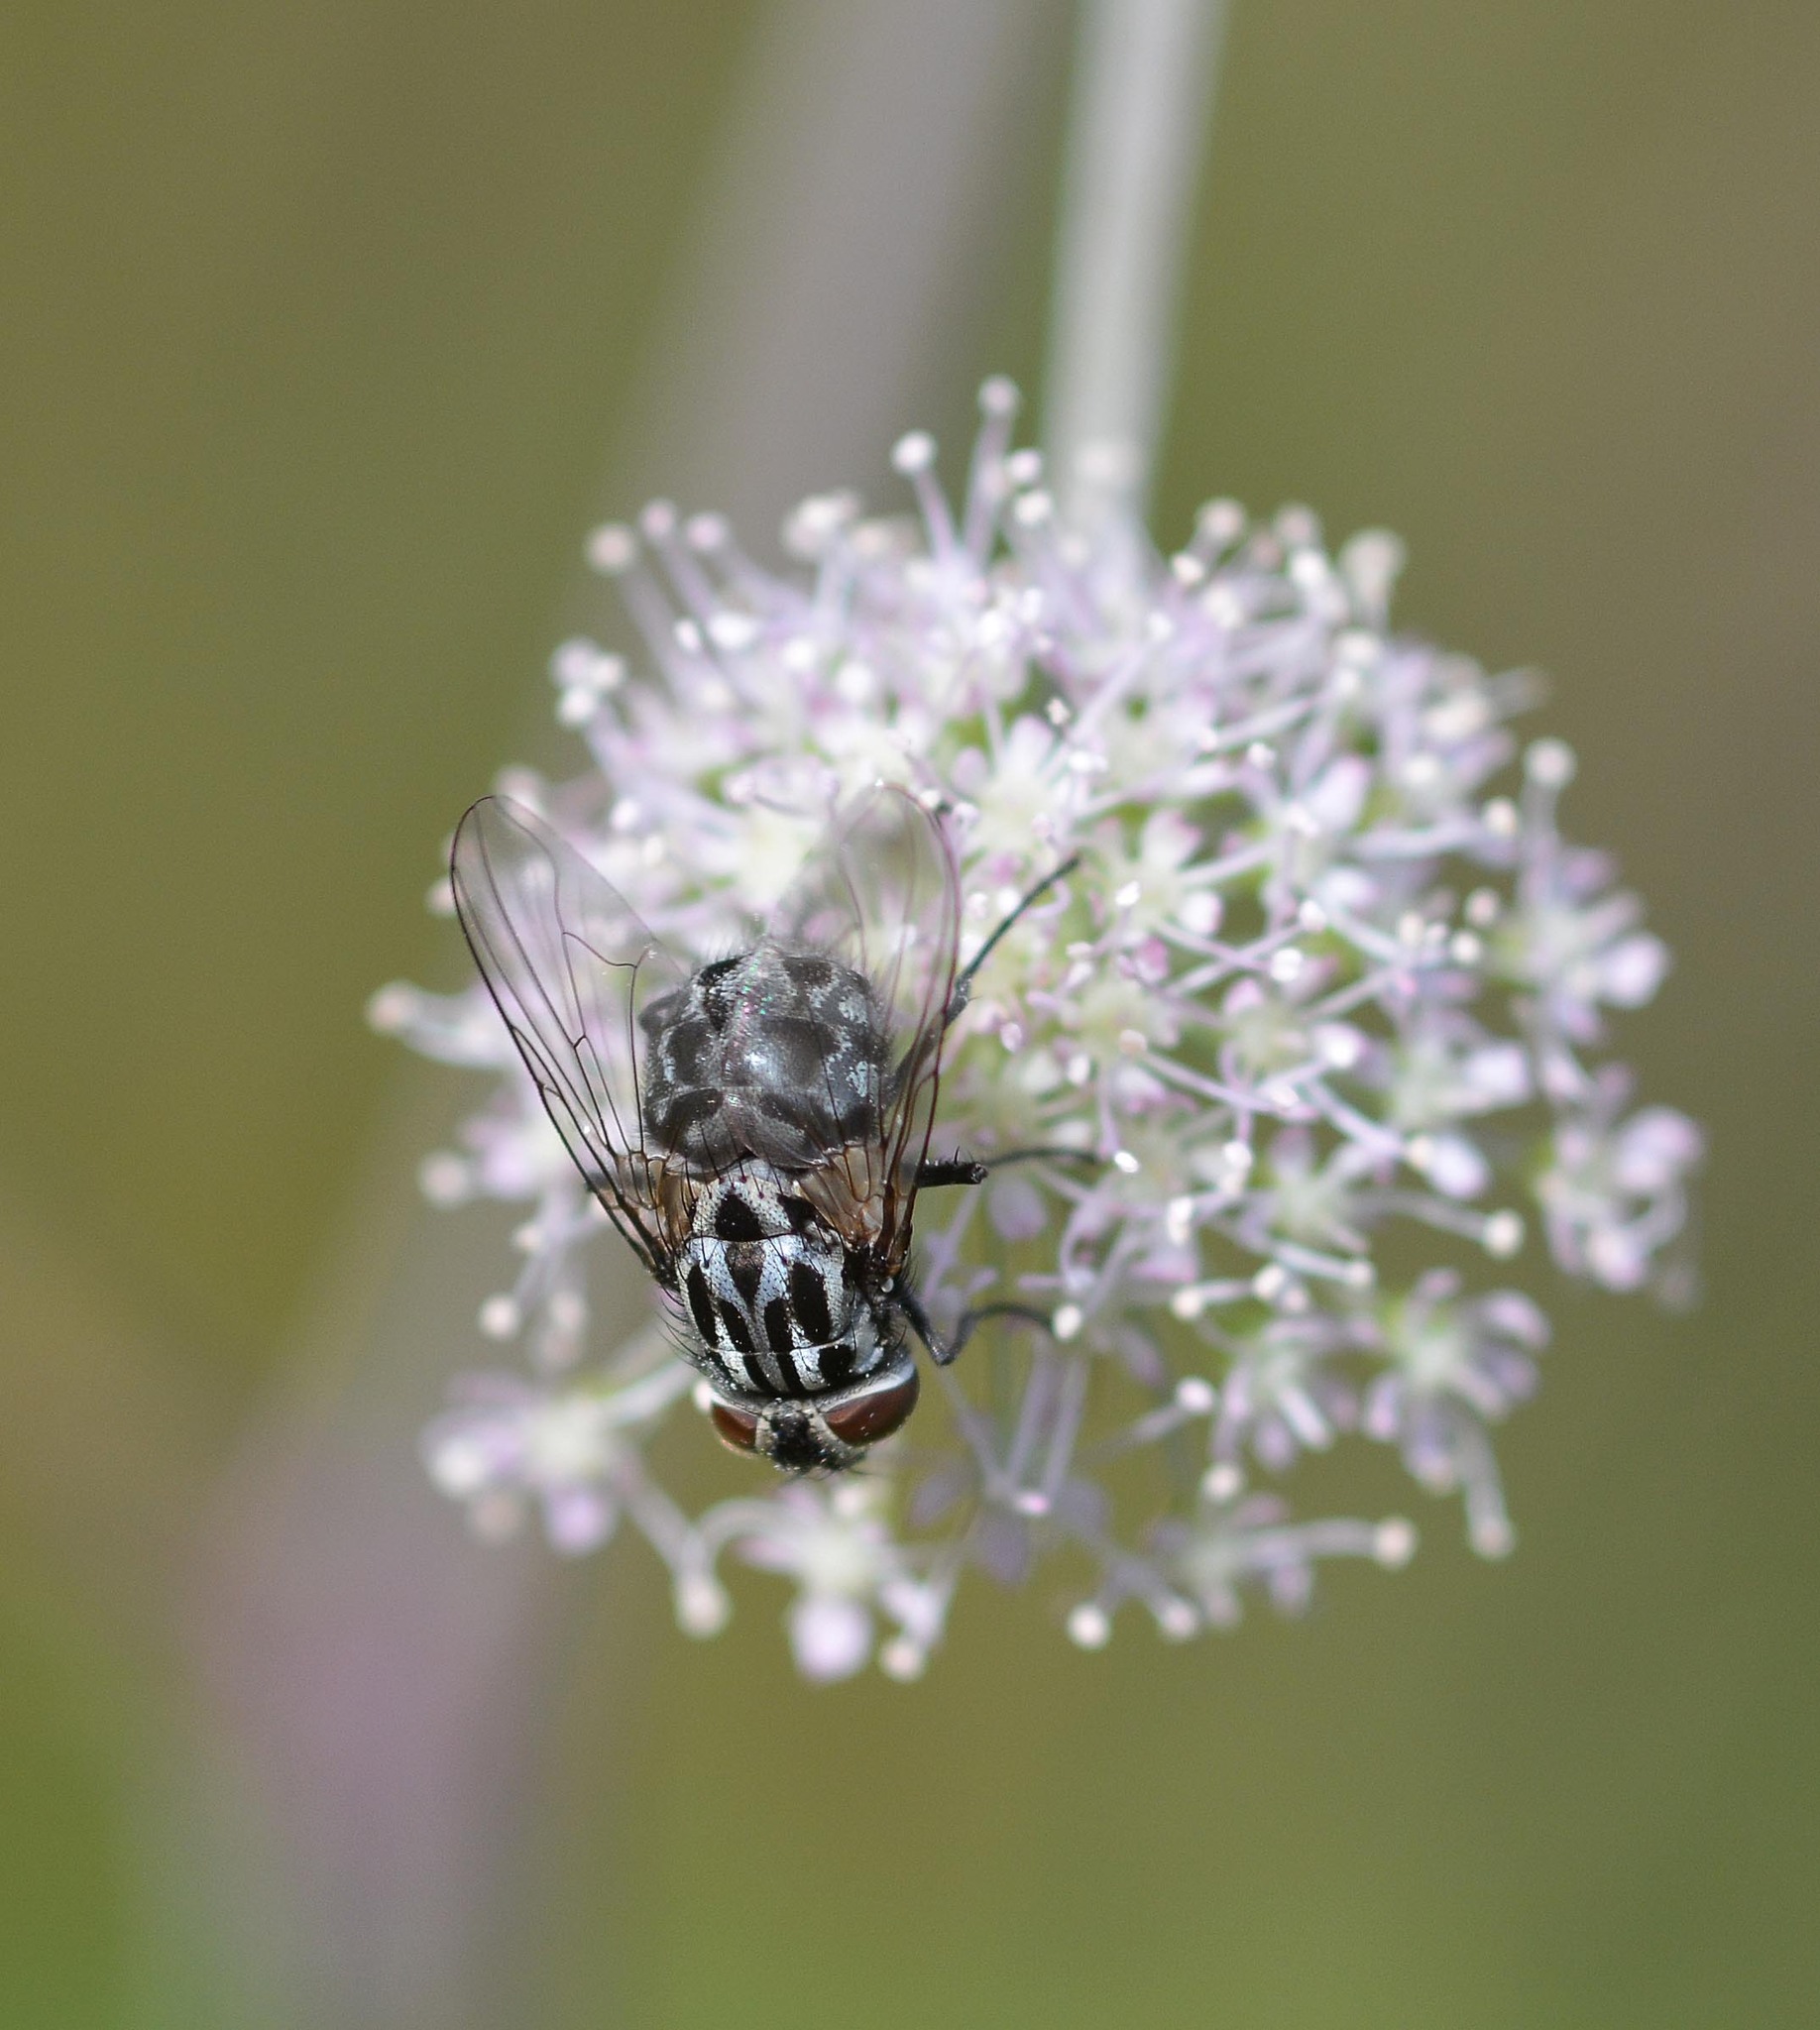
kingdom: Animalia
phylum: Arthropoda
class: Insecta
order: Diptera
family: Muscidae
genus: Graphomya
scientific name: Graphomya maculata
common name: Muscid fly
